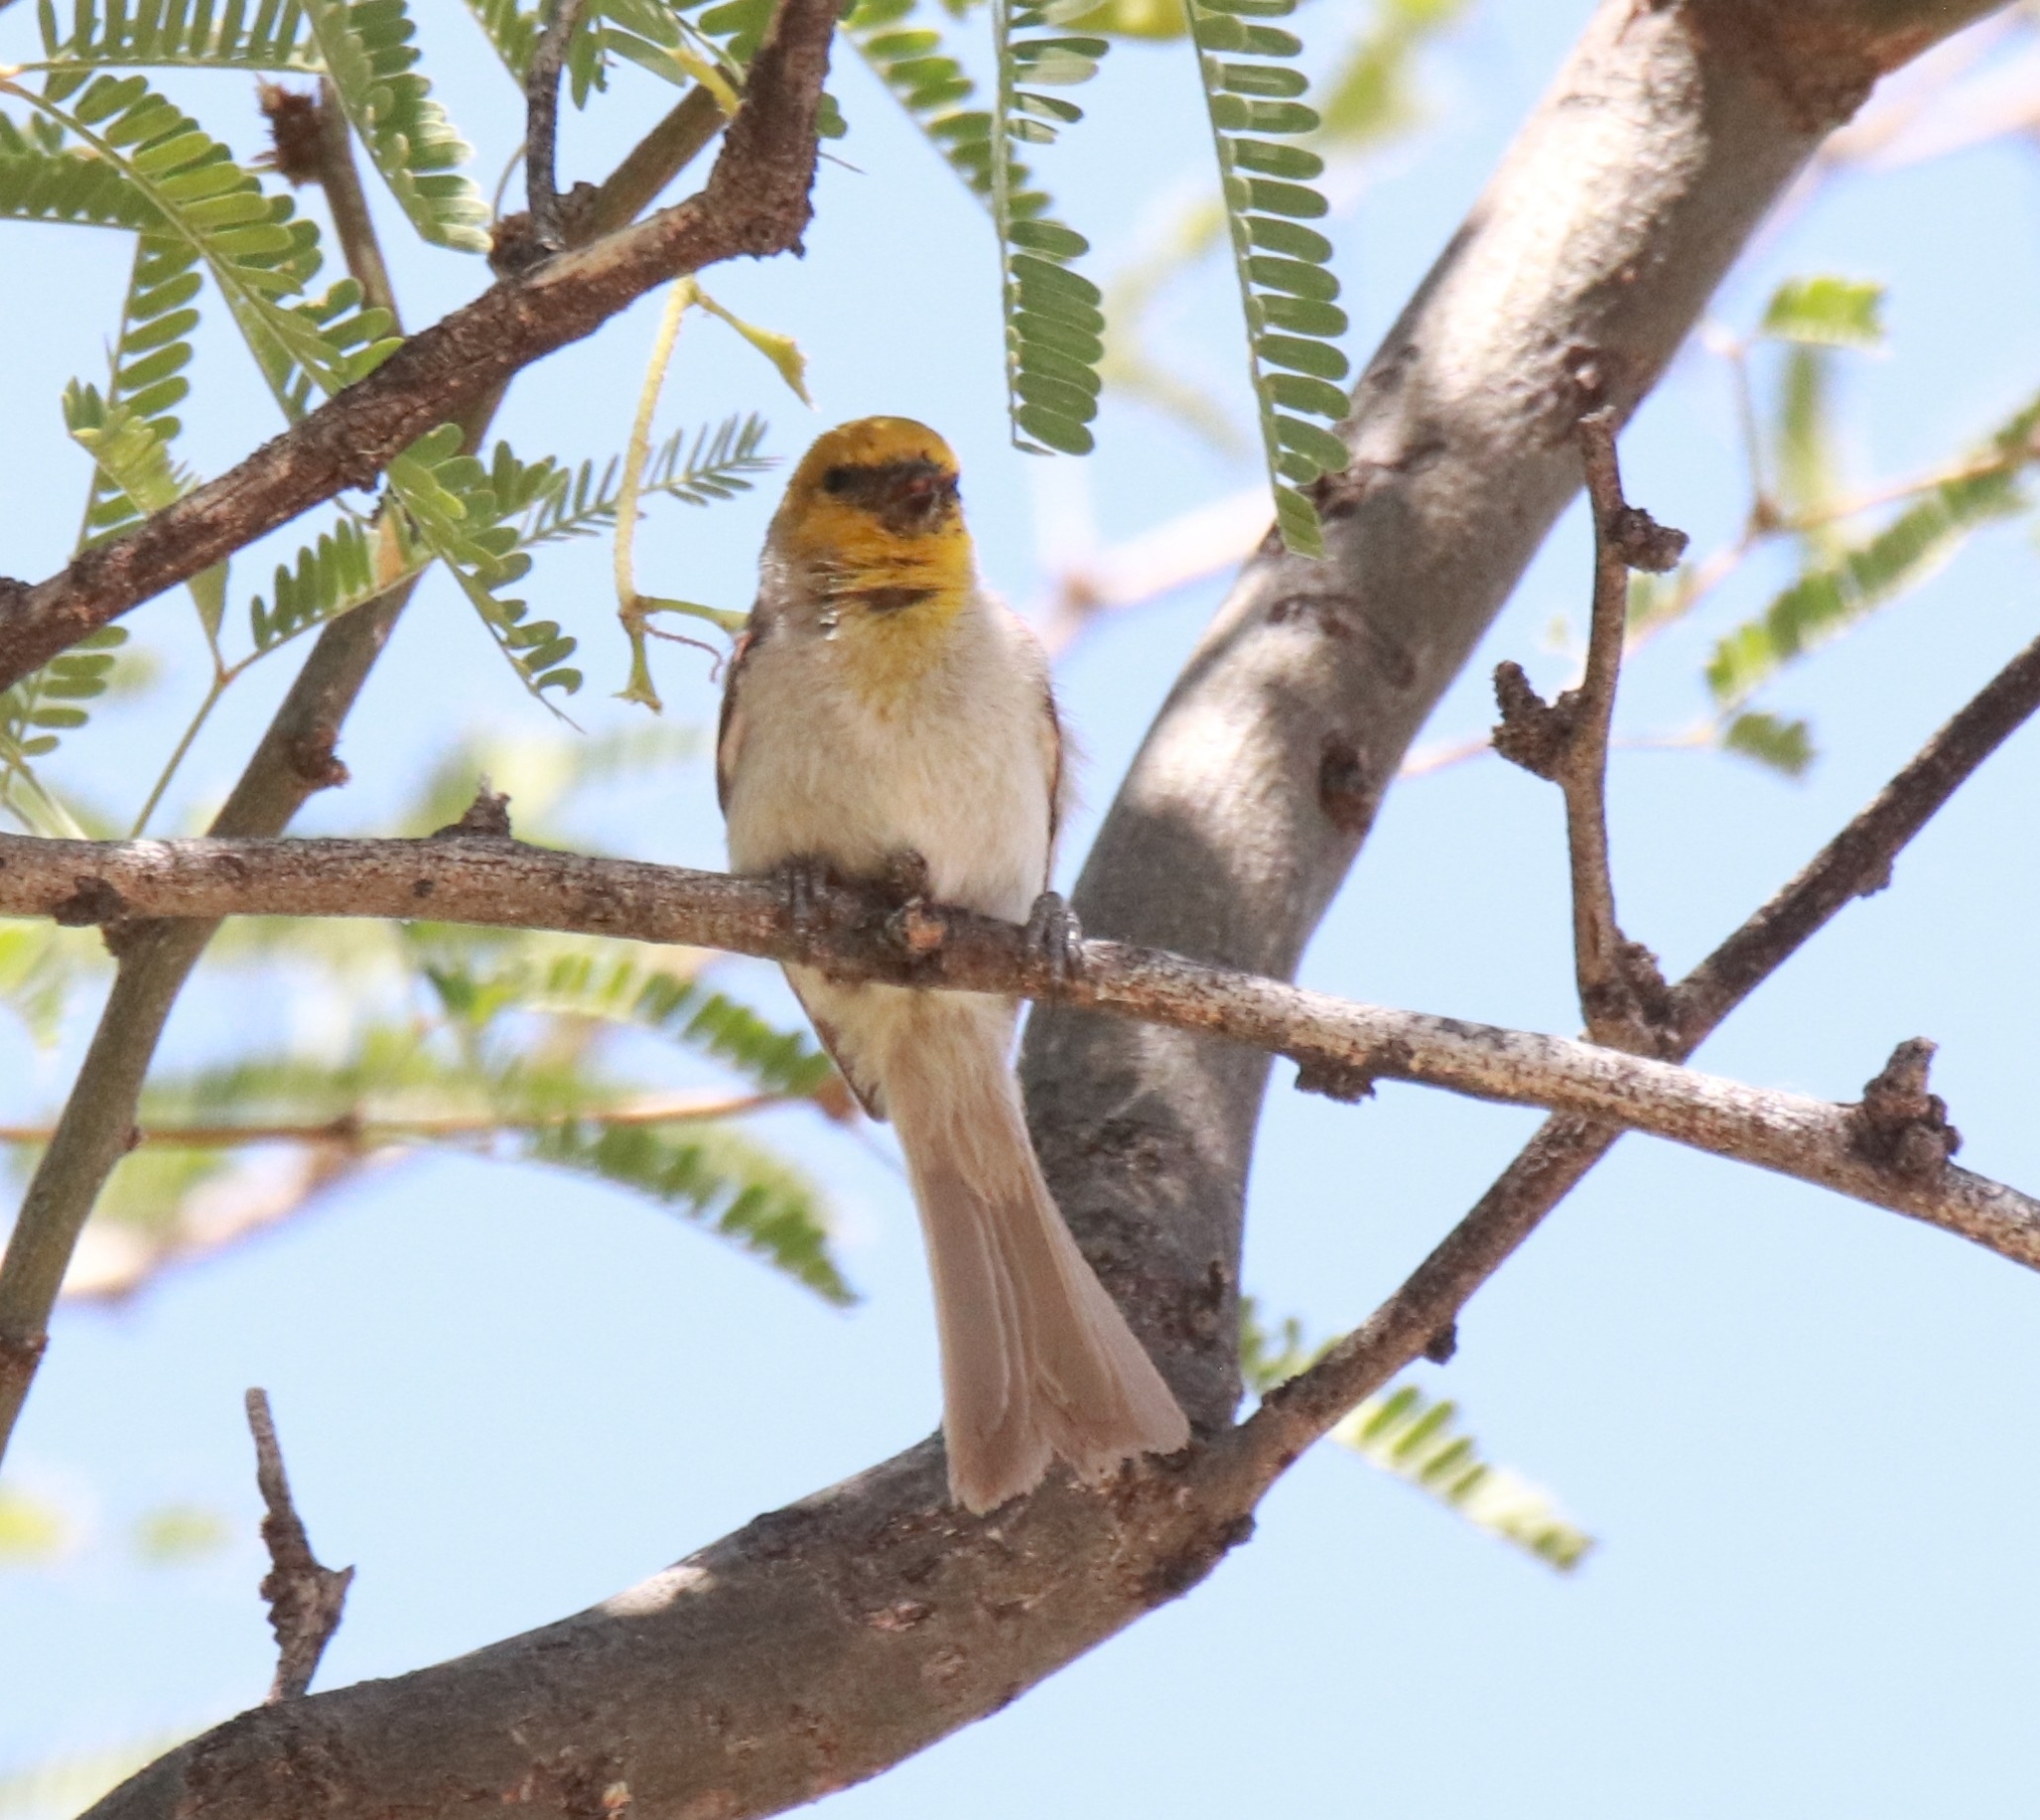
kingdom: Animalia
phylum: Chordata
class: Aves
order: Passeriformes
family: Remizidae
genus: Auriparus
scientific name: Auriparus flaviceps
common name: Verdin
